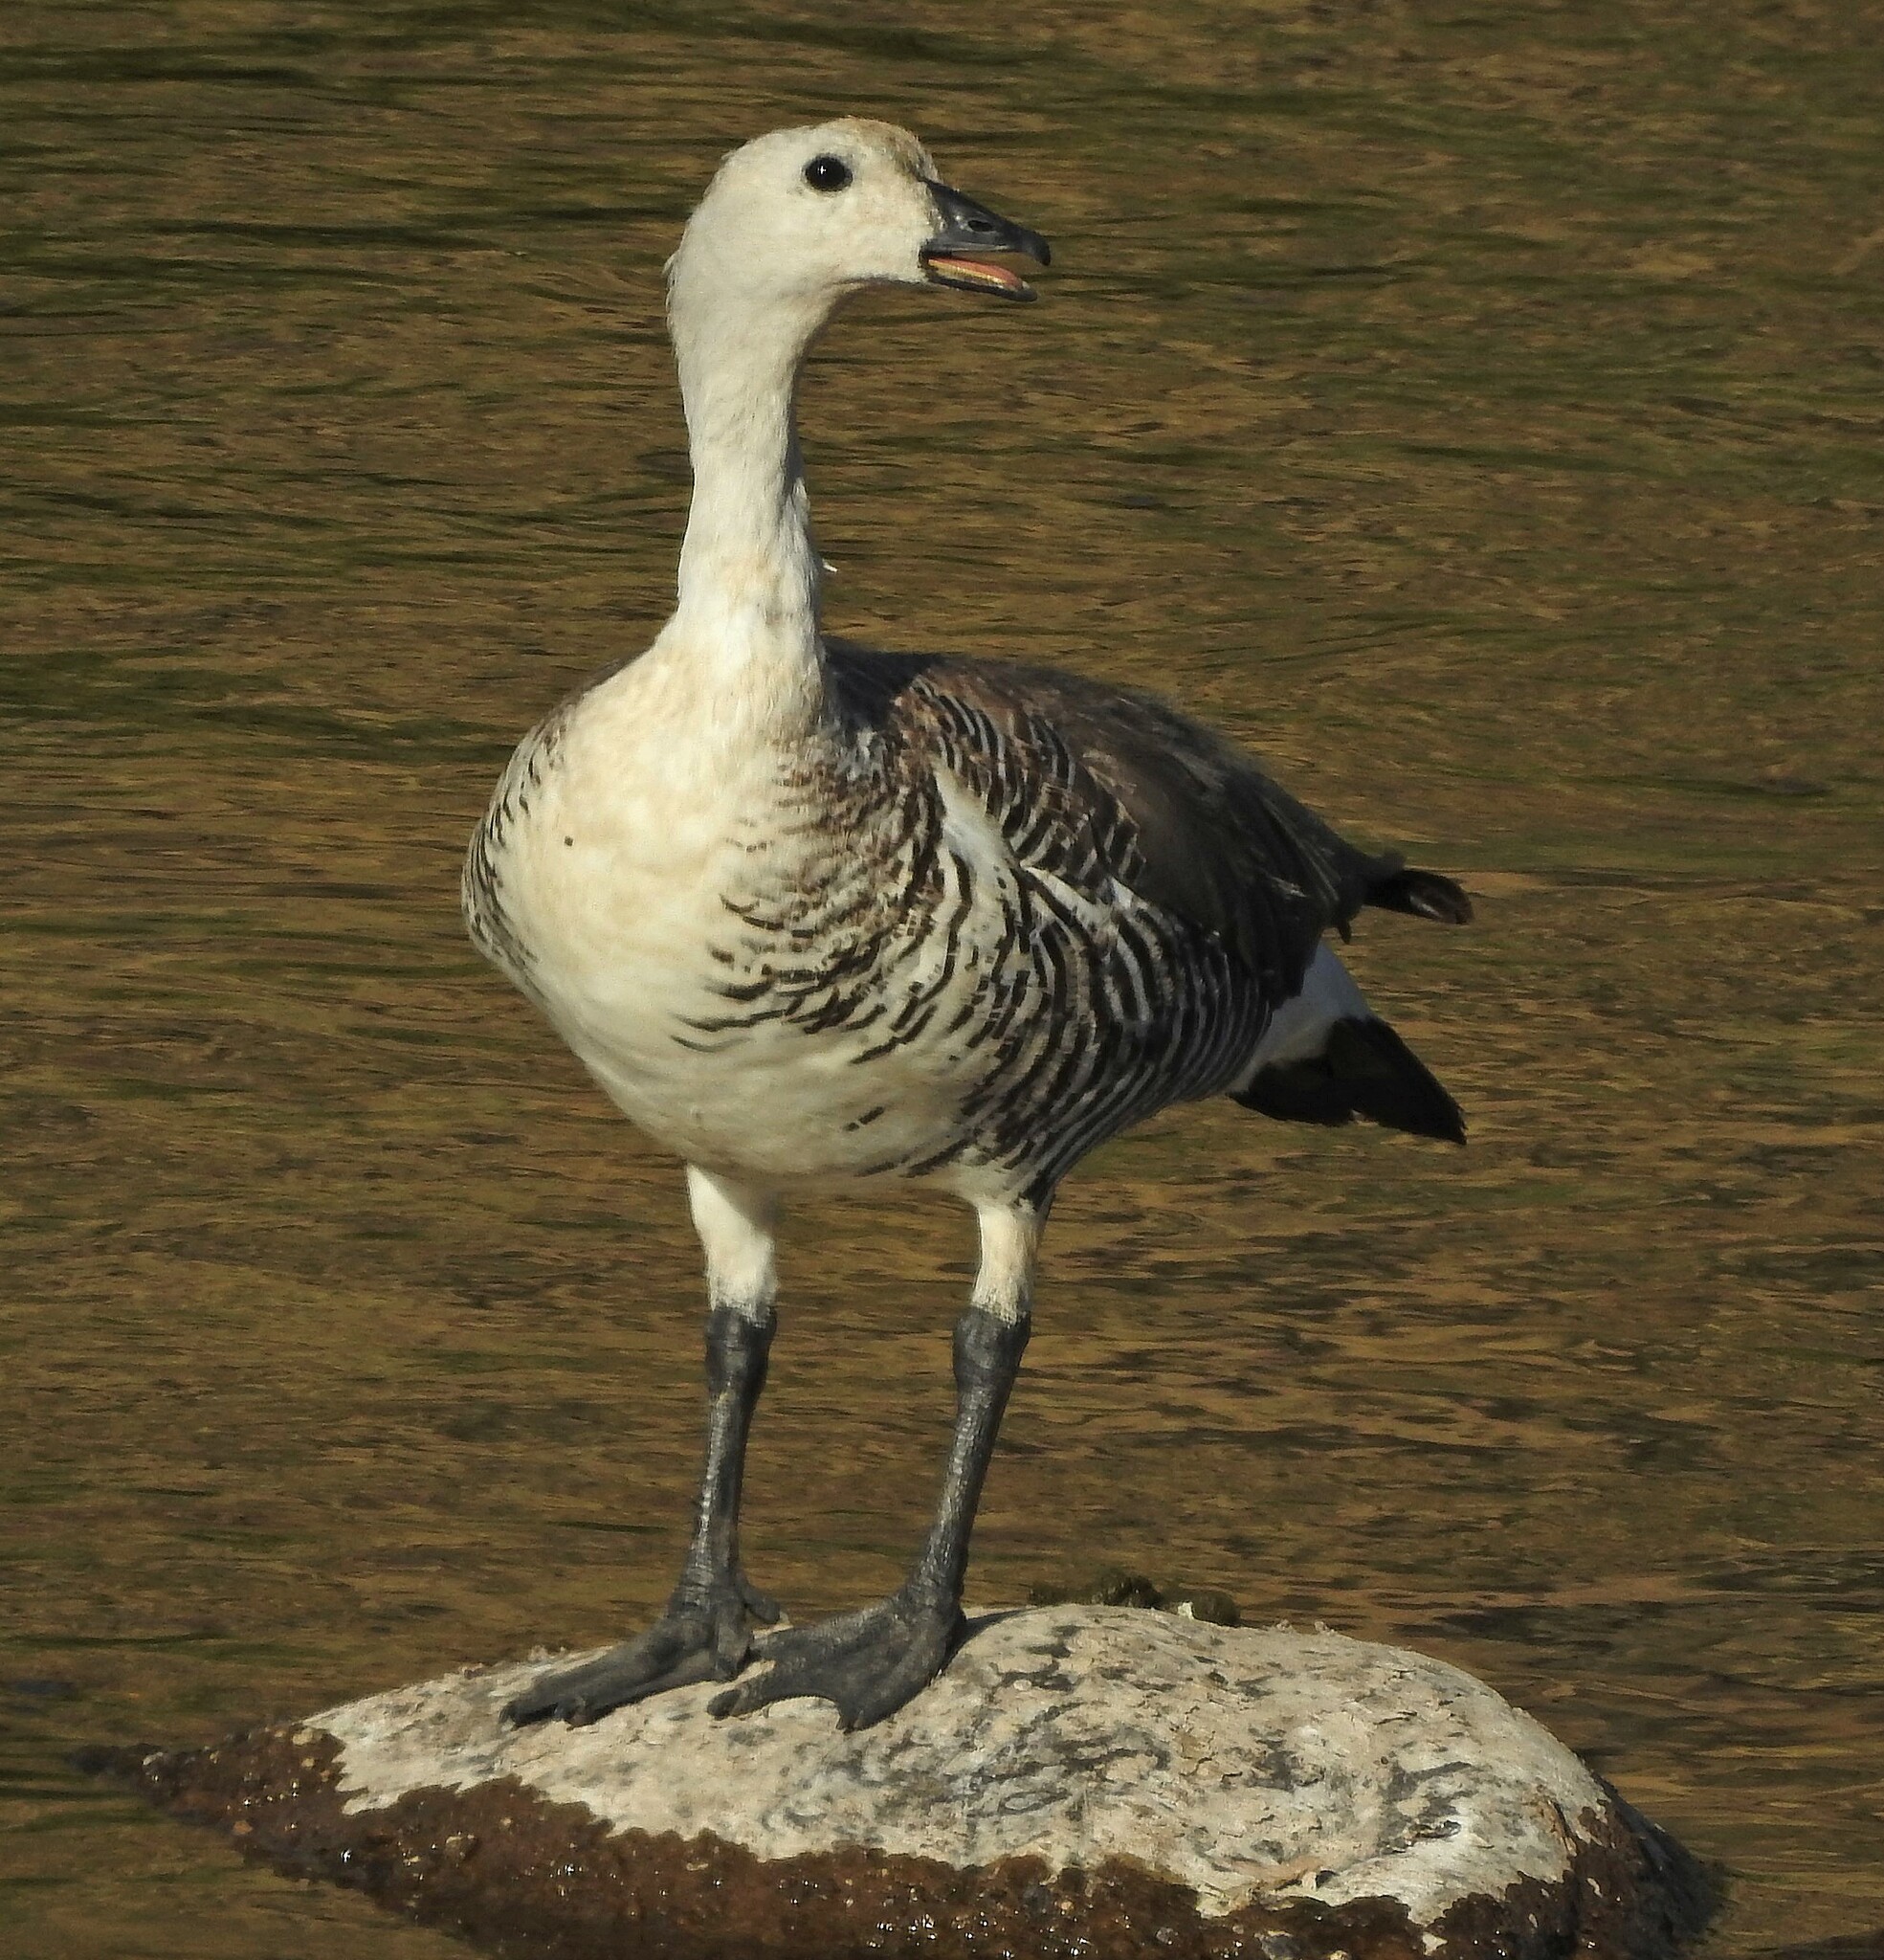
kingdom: Animalia
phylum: Chordata
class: Aves
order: Anseriformes
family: Anatidae
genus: Chloephaga
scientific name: Chloephaga picta
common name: Upland goose
